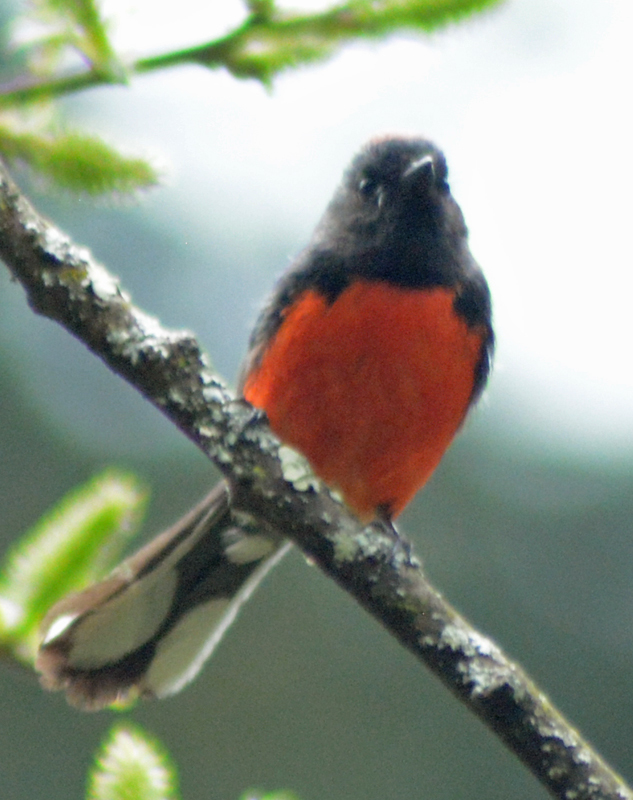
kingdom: Animalia
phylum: Chordata
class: Aves
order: Passeriformes
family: Parulidae
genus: Myioborus
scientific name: Myioborus miniatus
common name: Slate-throated redstart
